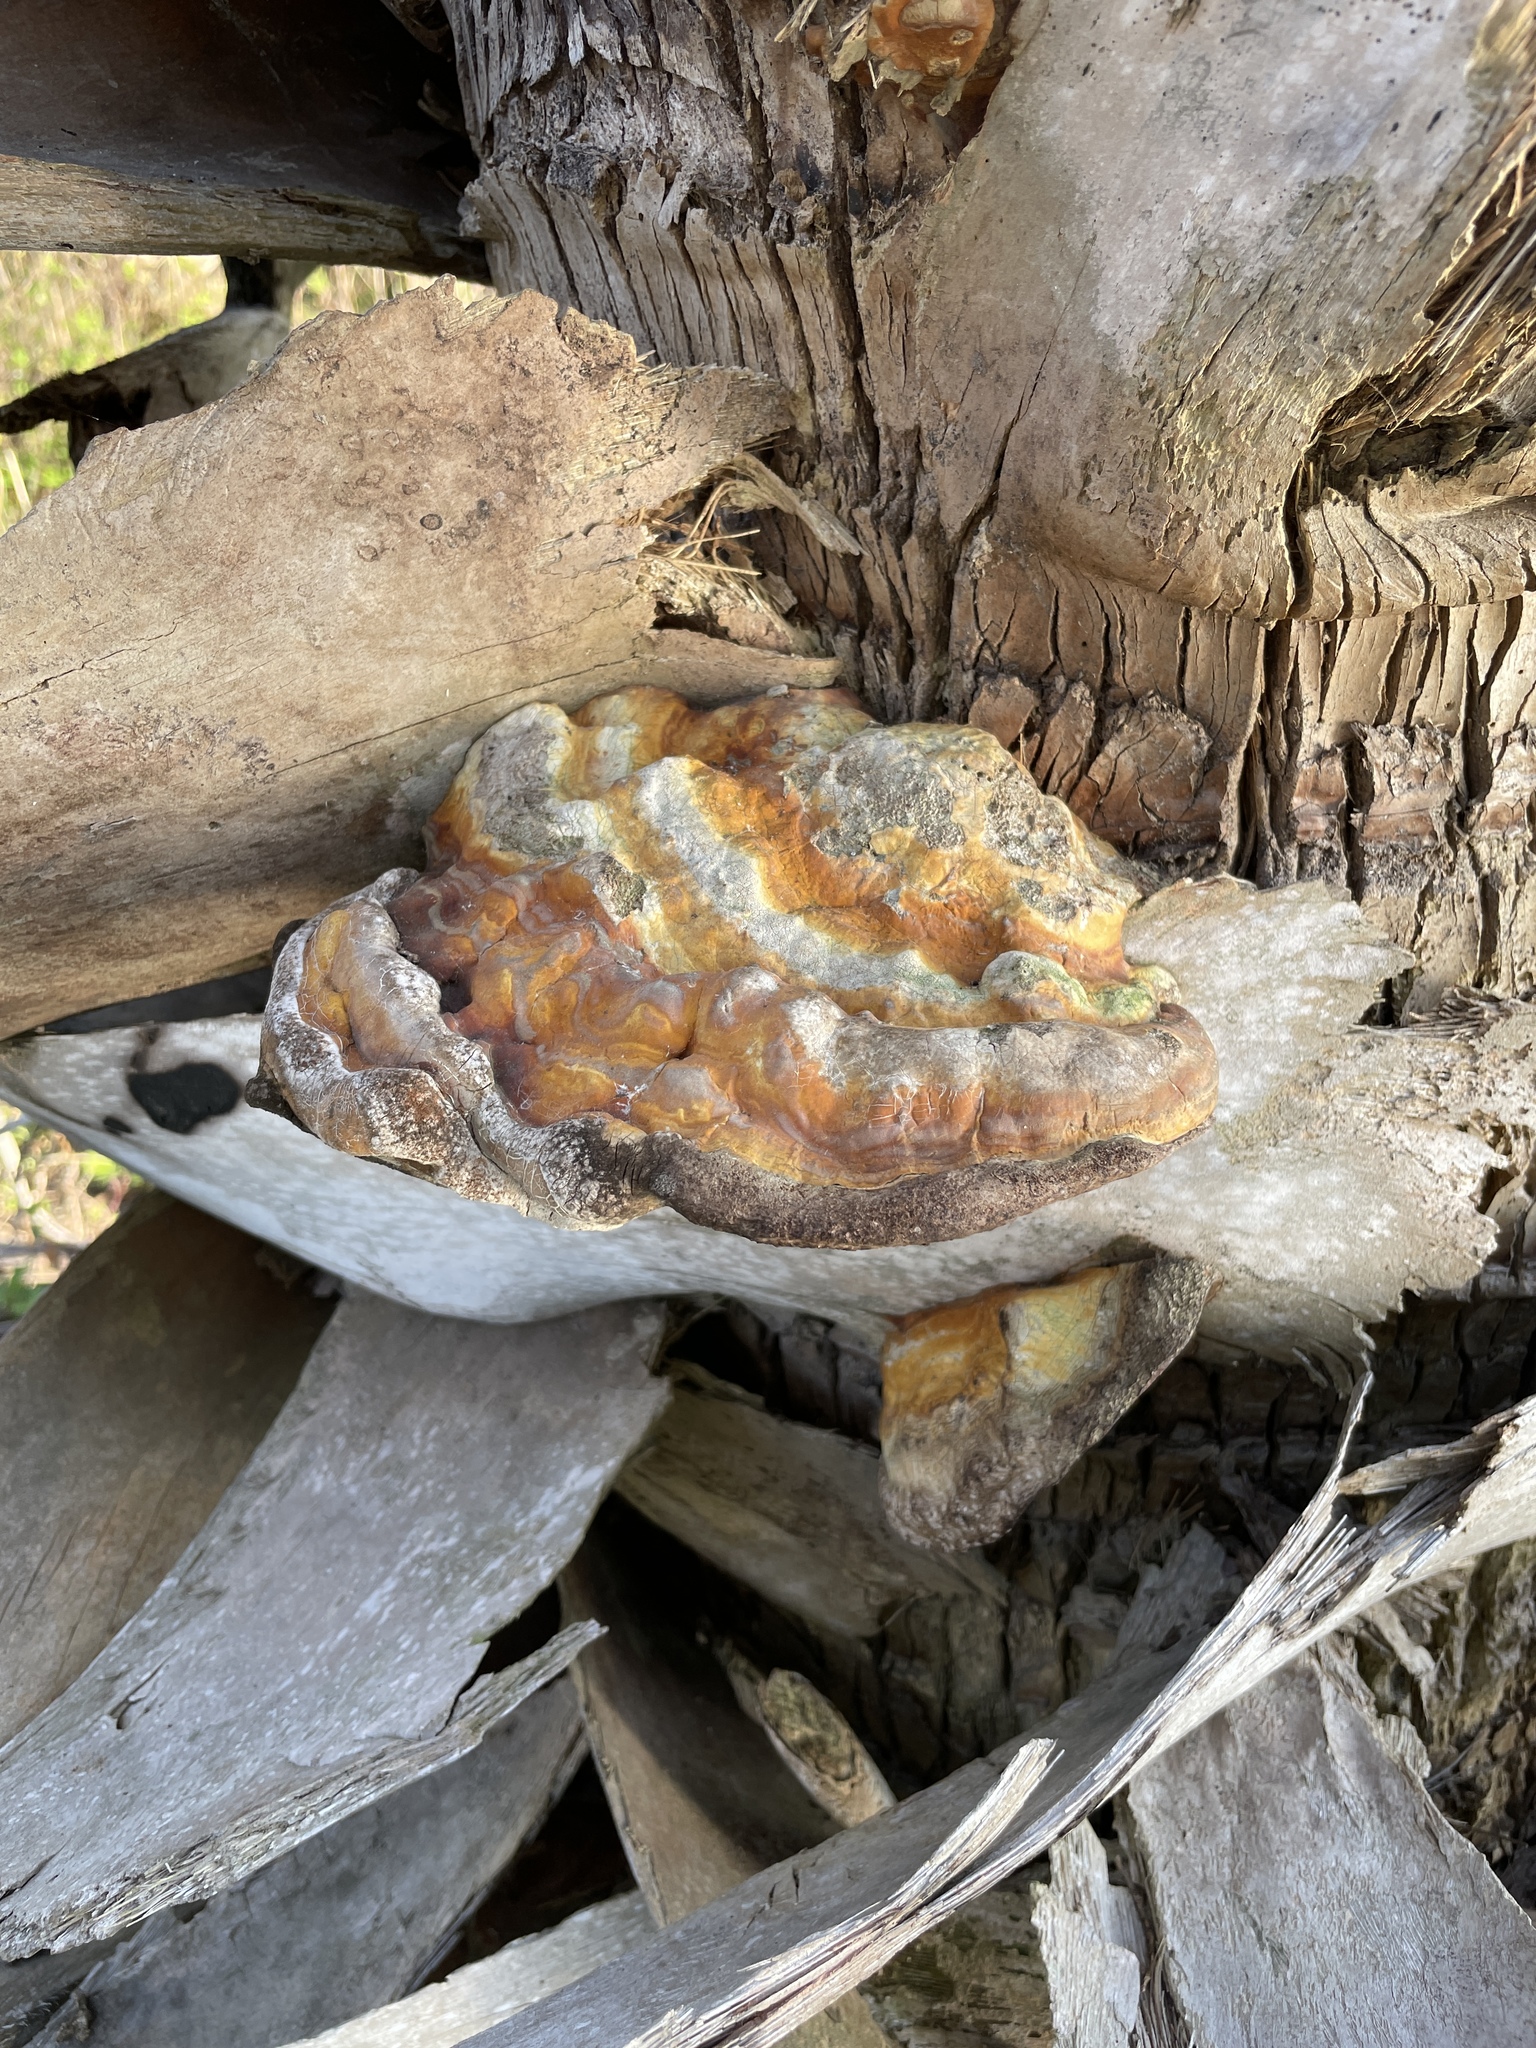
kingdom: Fungi
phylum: Basidiomycota
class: Agaricomycetes
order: Polyporales
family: Polyporaceae
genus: Ganoderma
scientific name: Ganoderma zonatum
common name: Ganoderma butt rot
